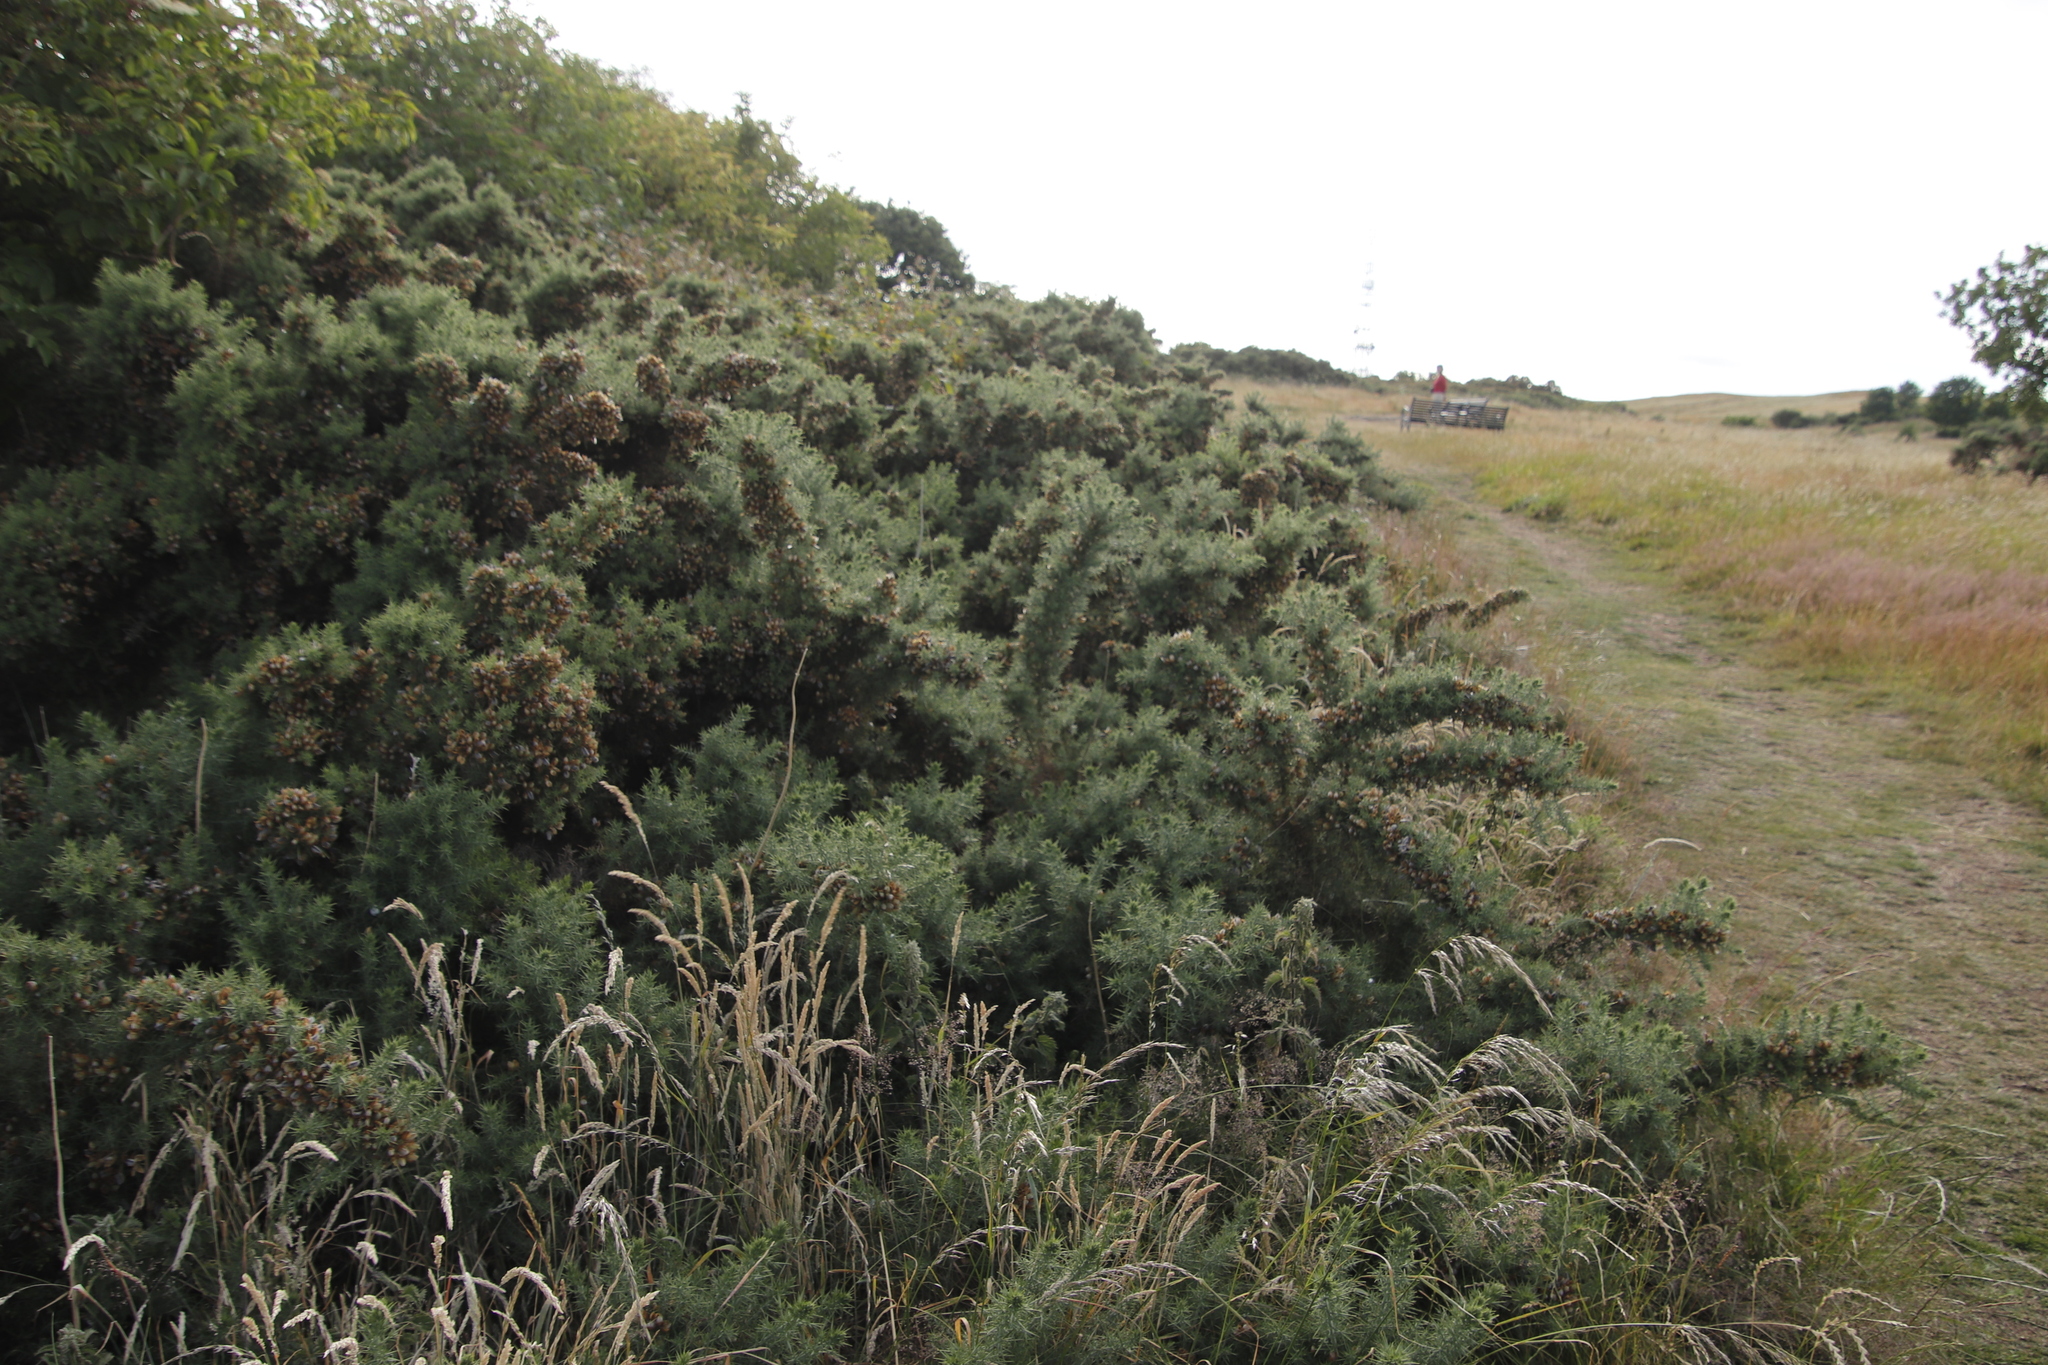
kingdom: Plantae
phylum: Tracheophyta
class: Magnoliopsida
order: Fabales
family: Fabaceae
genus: Ulex
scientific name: Ulex europaeus
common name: Common gorse
